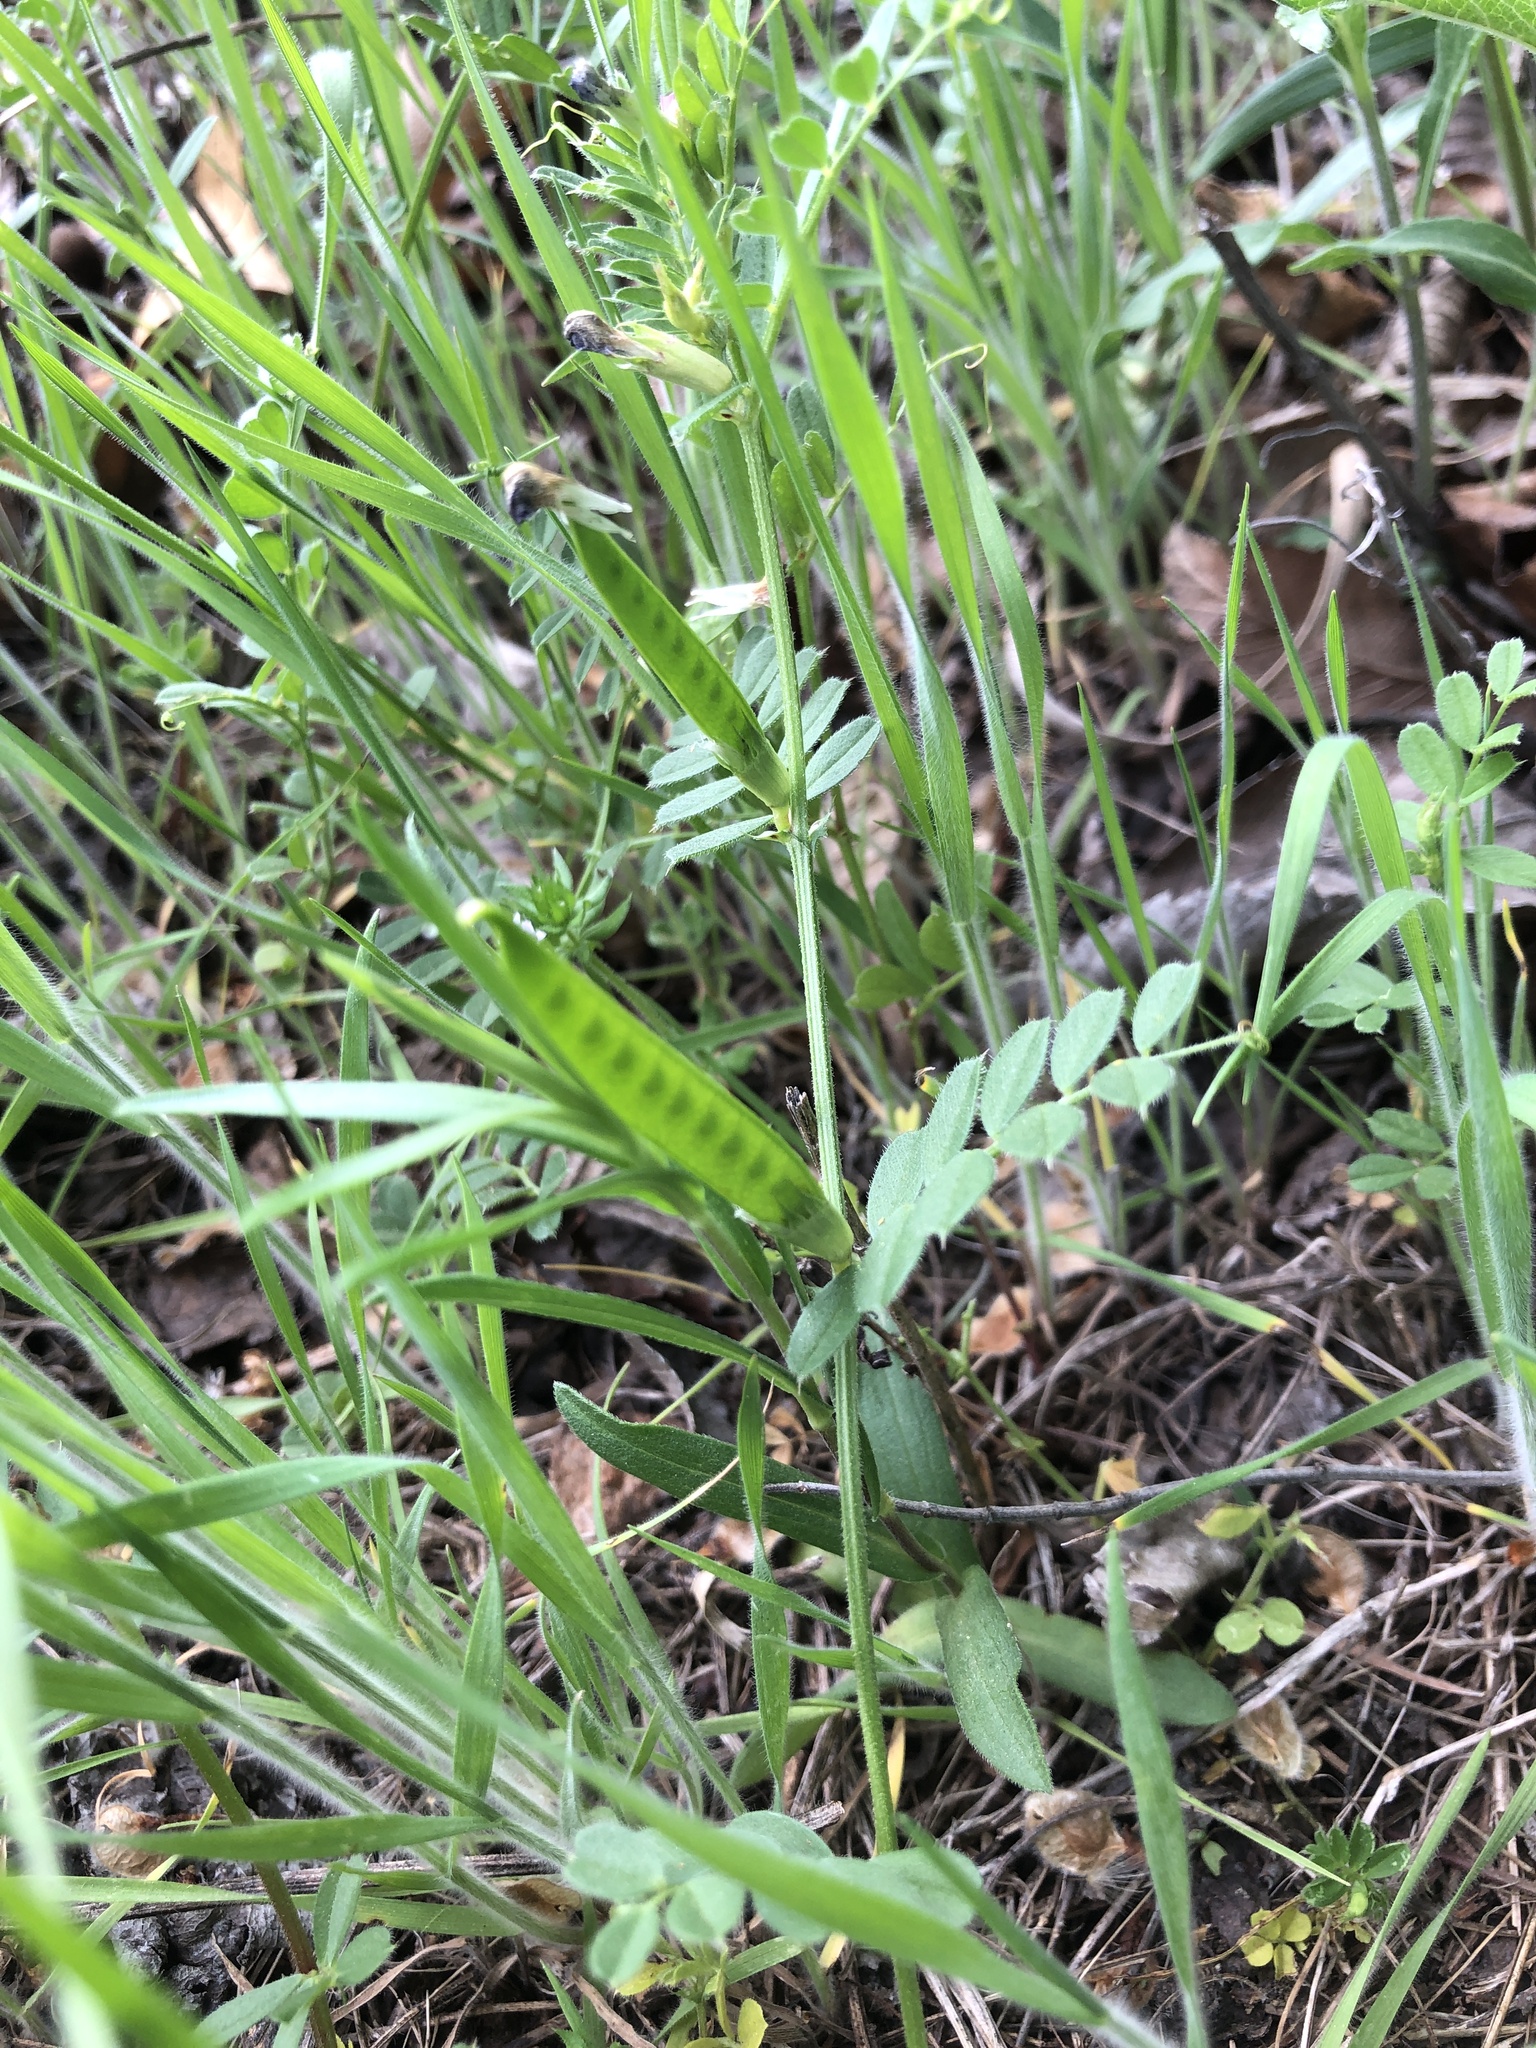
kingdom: Plantae
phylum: Tracheophyta
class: Magnoliopsida
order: Fabales
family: Fabaceae
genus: Vicia
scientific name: Vicia sativa
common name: Garden vetch
